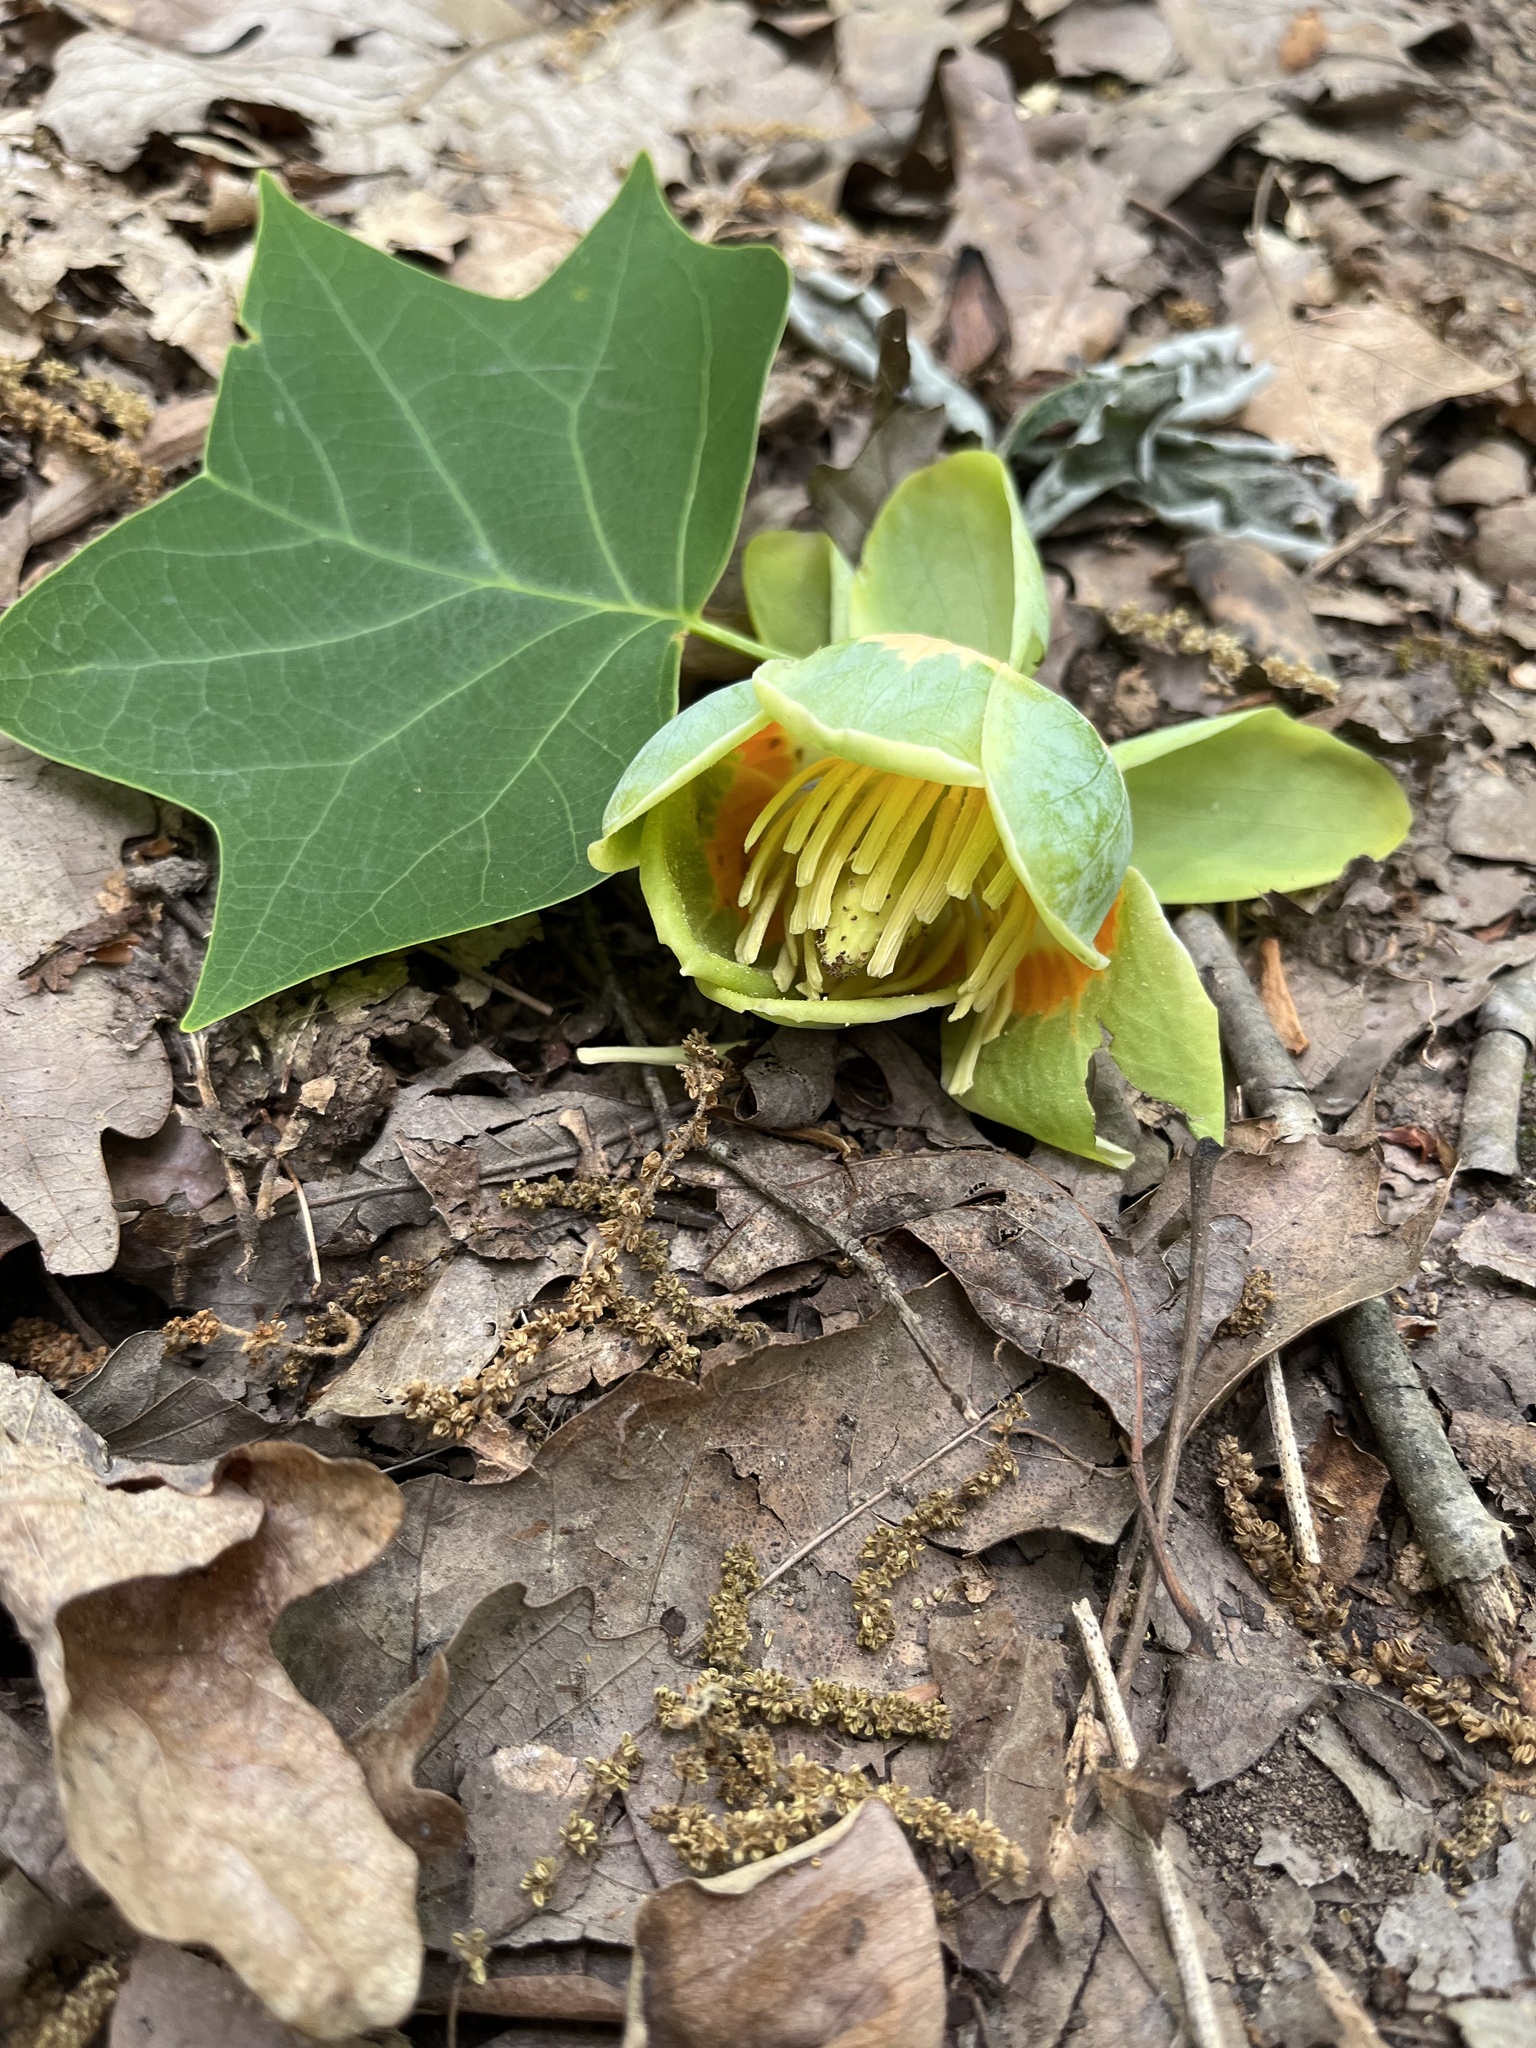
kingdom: Plantae
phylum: Tracheophyta
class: Magnoliopsida
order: Magnoliales
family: Magnoliaceae
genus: Liriodendron
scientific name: Liriodendron tulipifera
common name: Tulip tree
